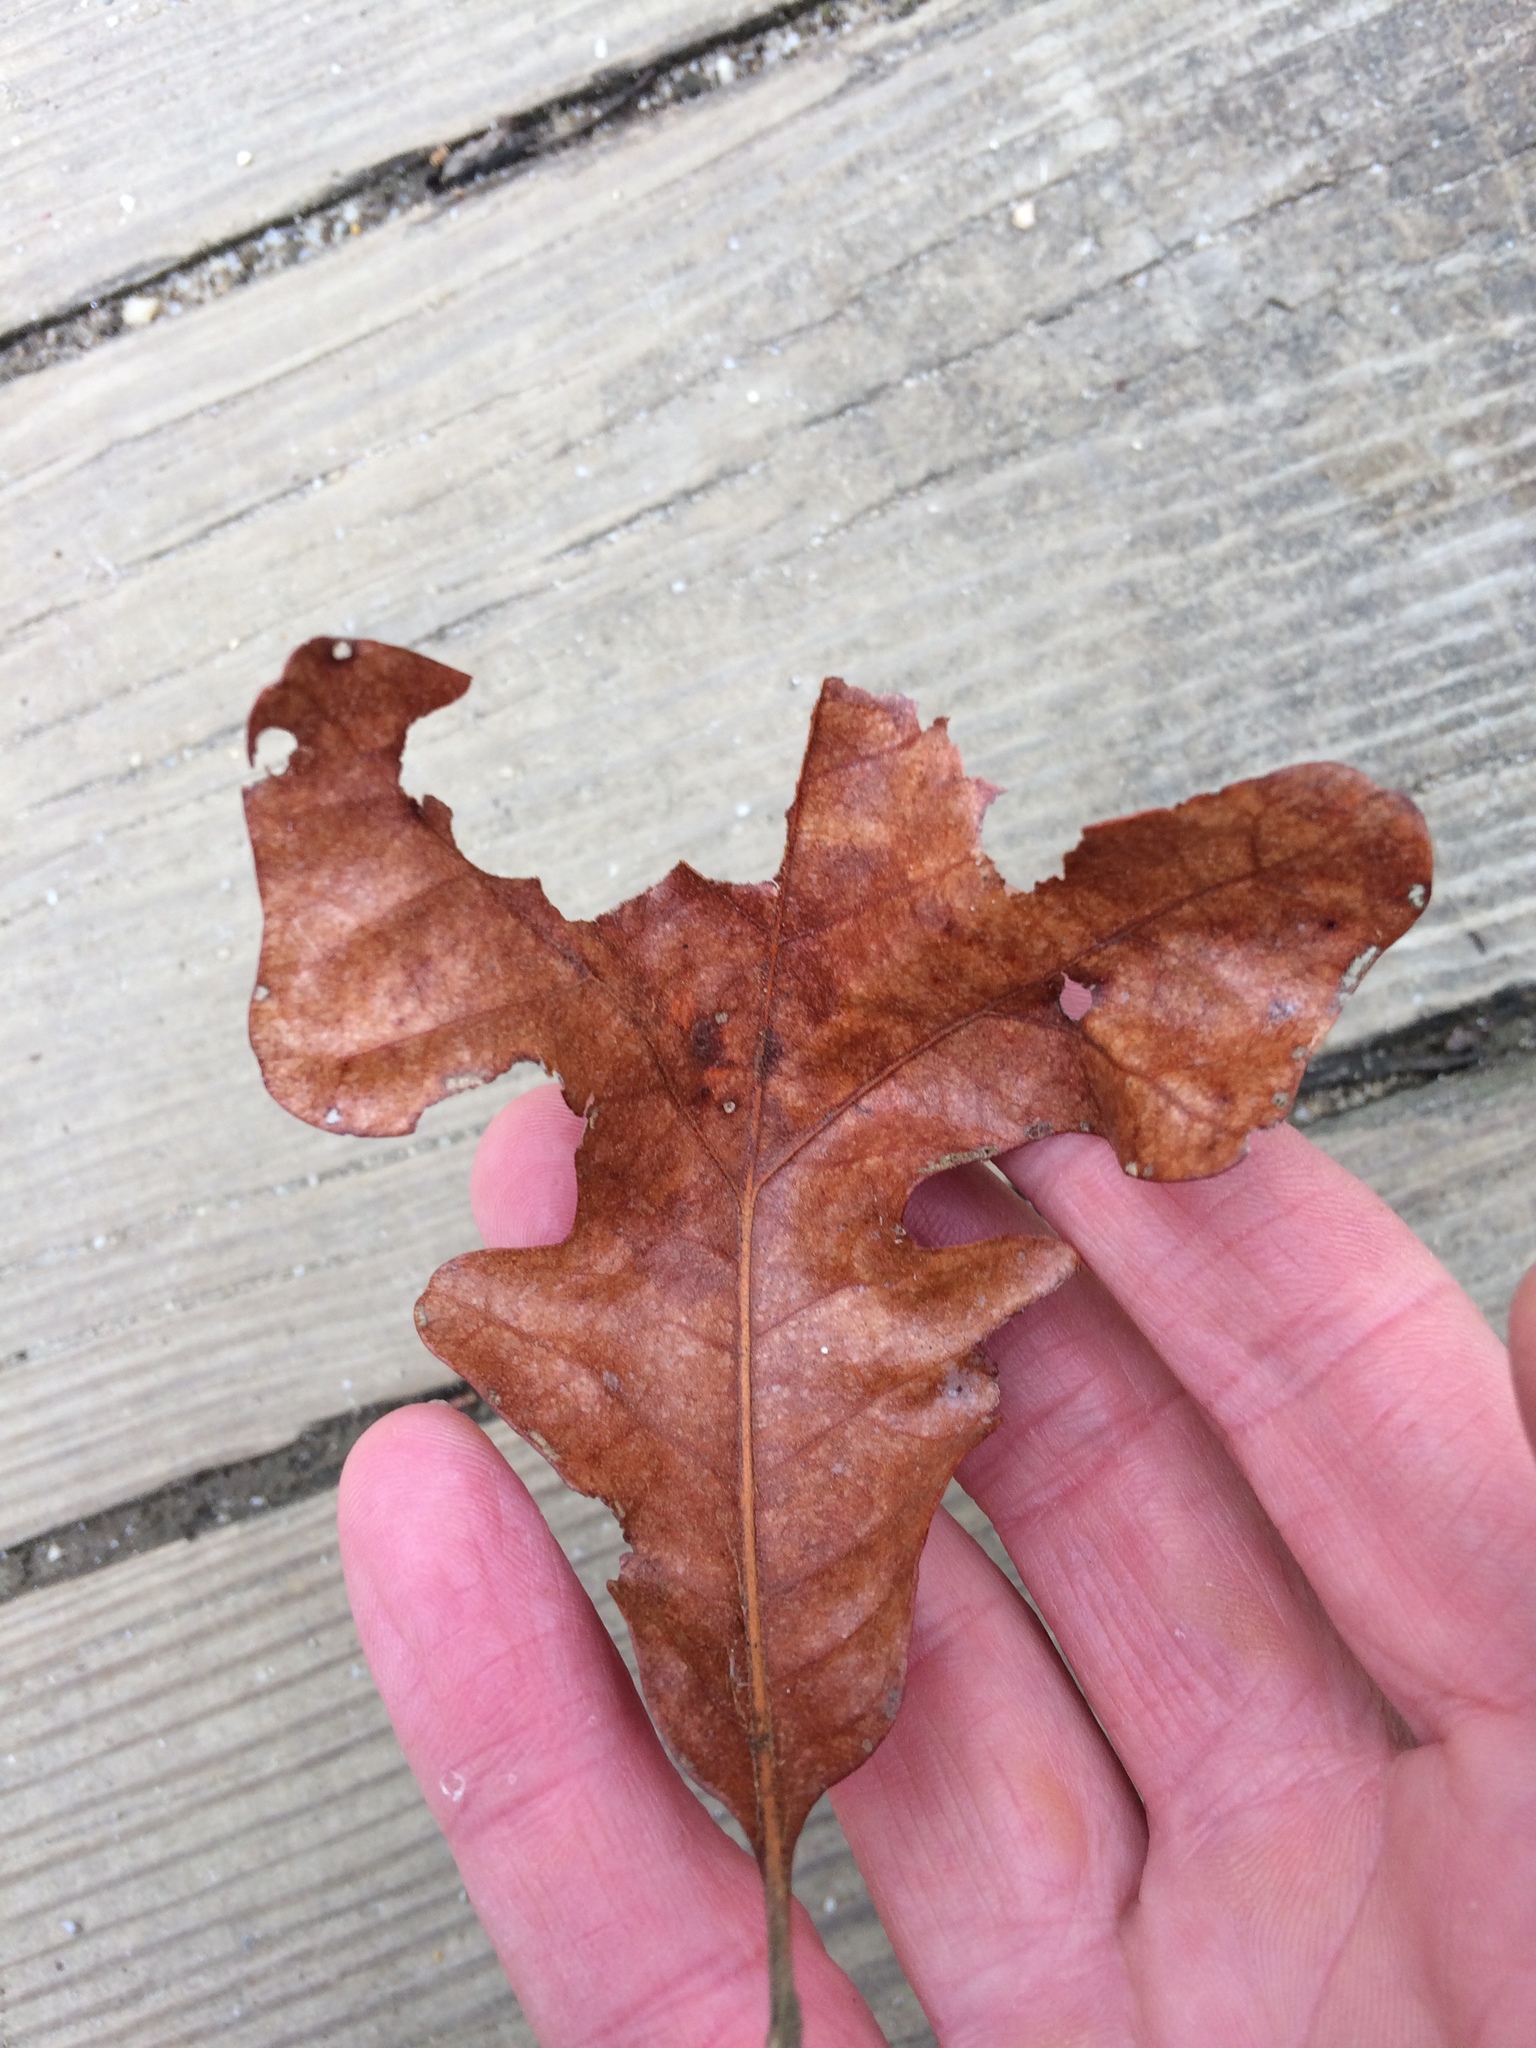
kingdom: Plantae
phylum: Tracheophyta
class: Magnoliopsida
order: Fagales
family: Fagaceae
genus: Quercus
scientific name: Quercus stellata
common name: Post oak
